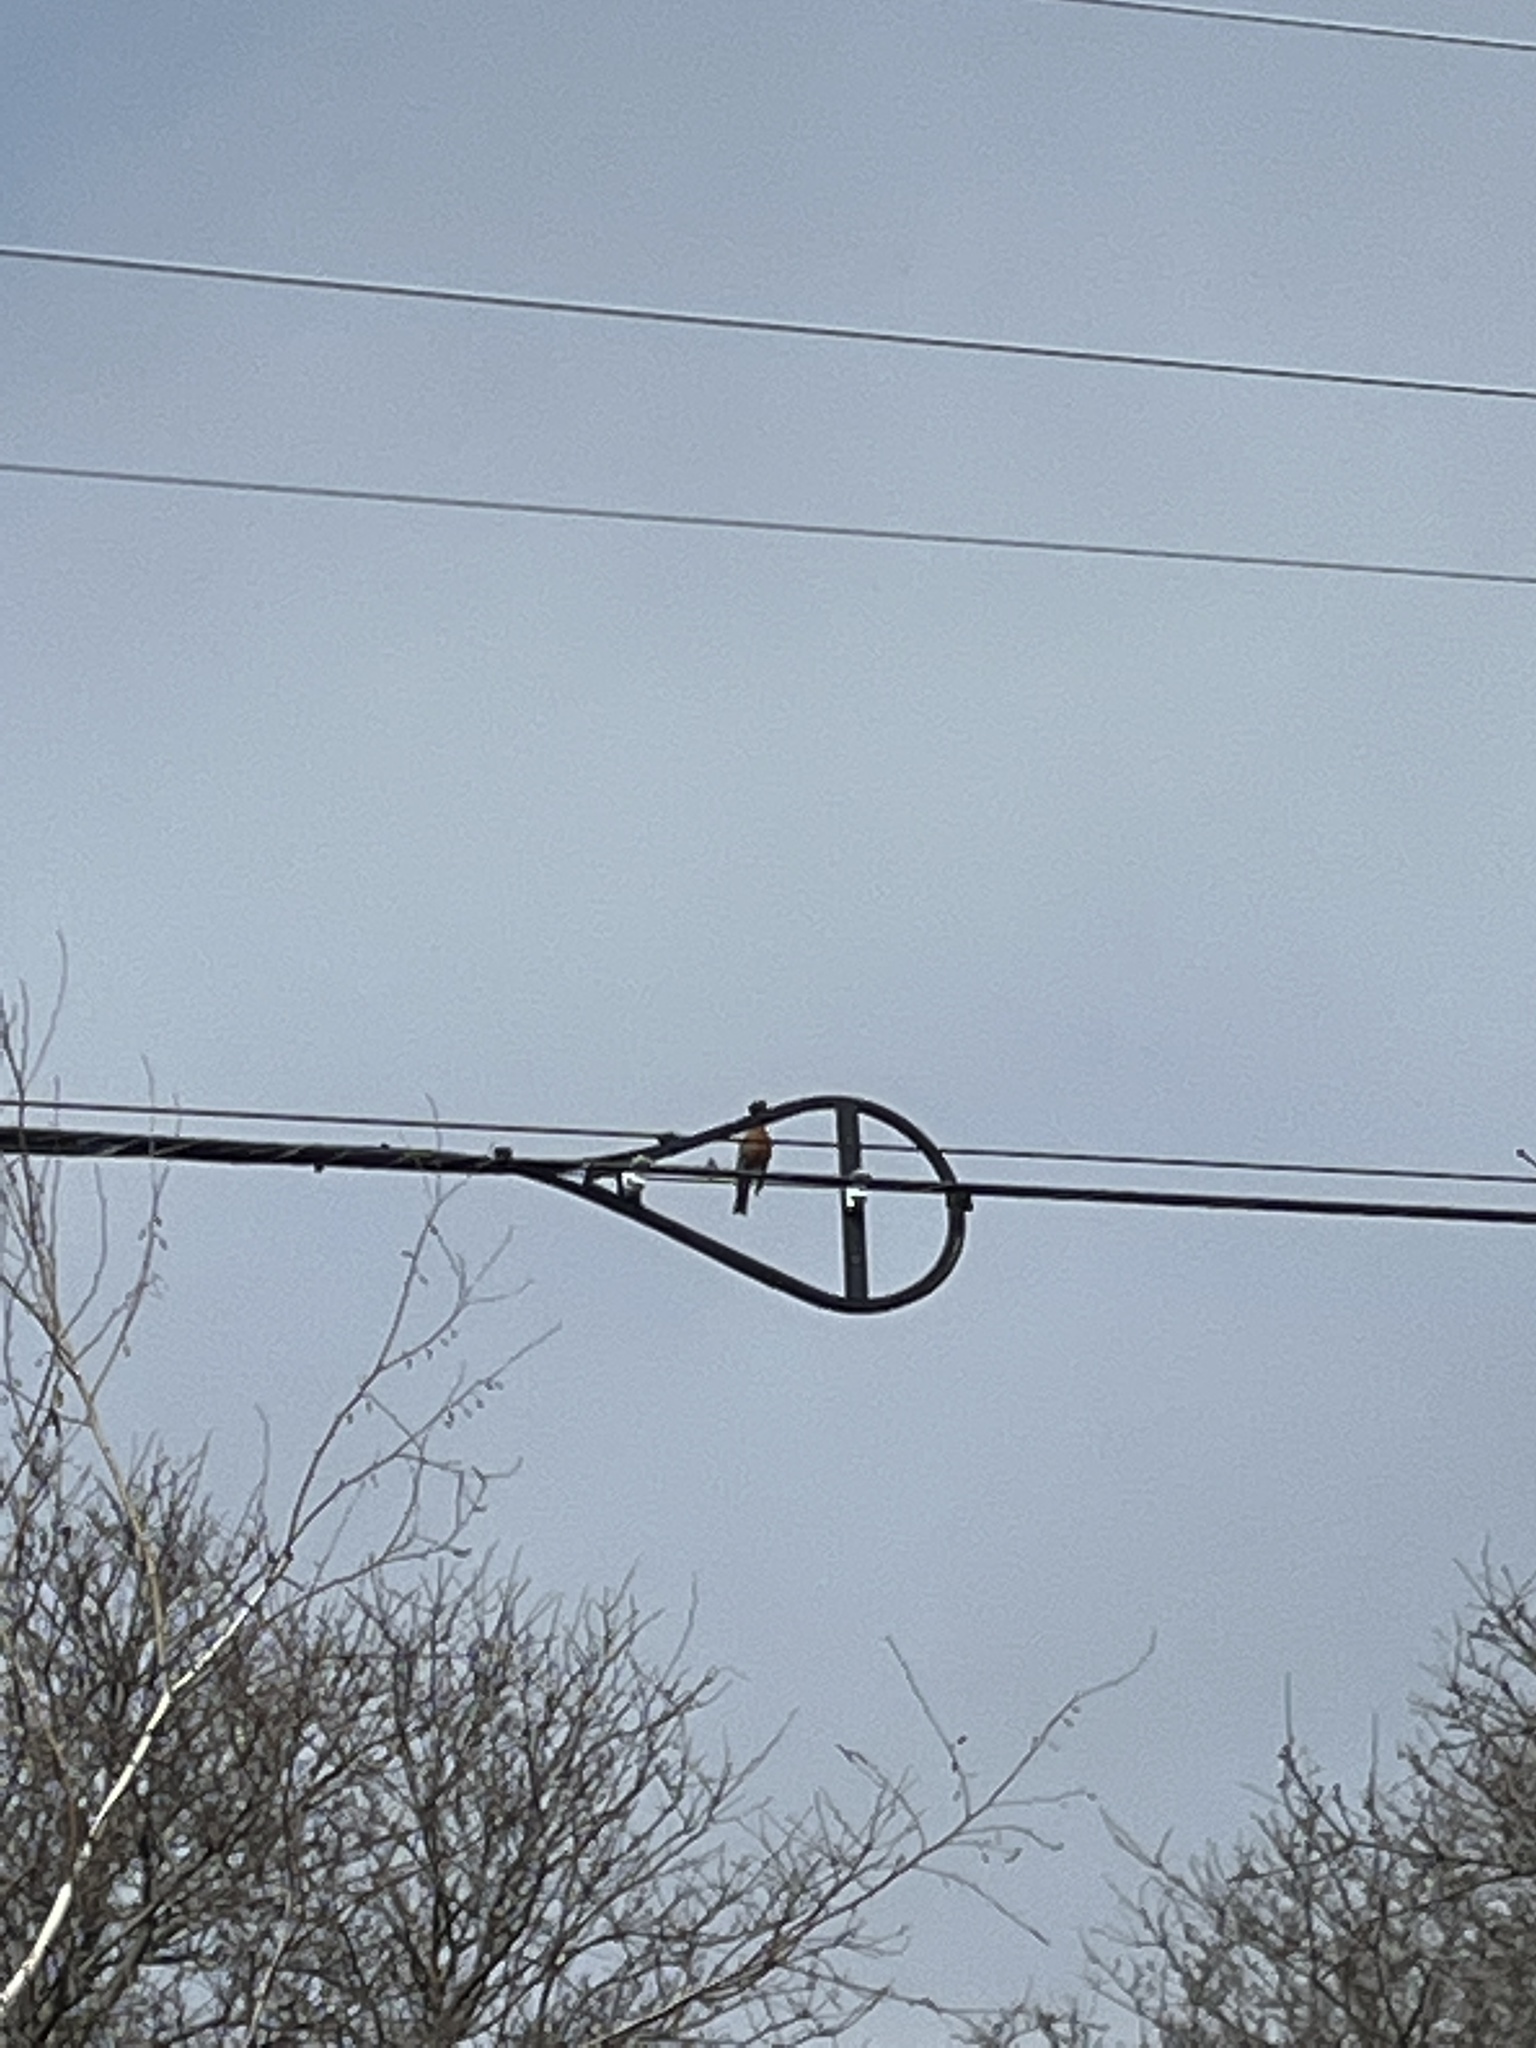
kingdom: Animalia
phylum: Chordata
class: Aves
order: Passeriformes
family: Turdidae
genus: Turdus
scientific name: Turdus migratorius
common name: American robin
